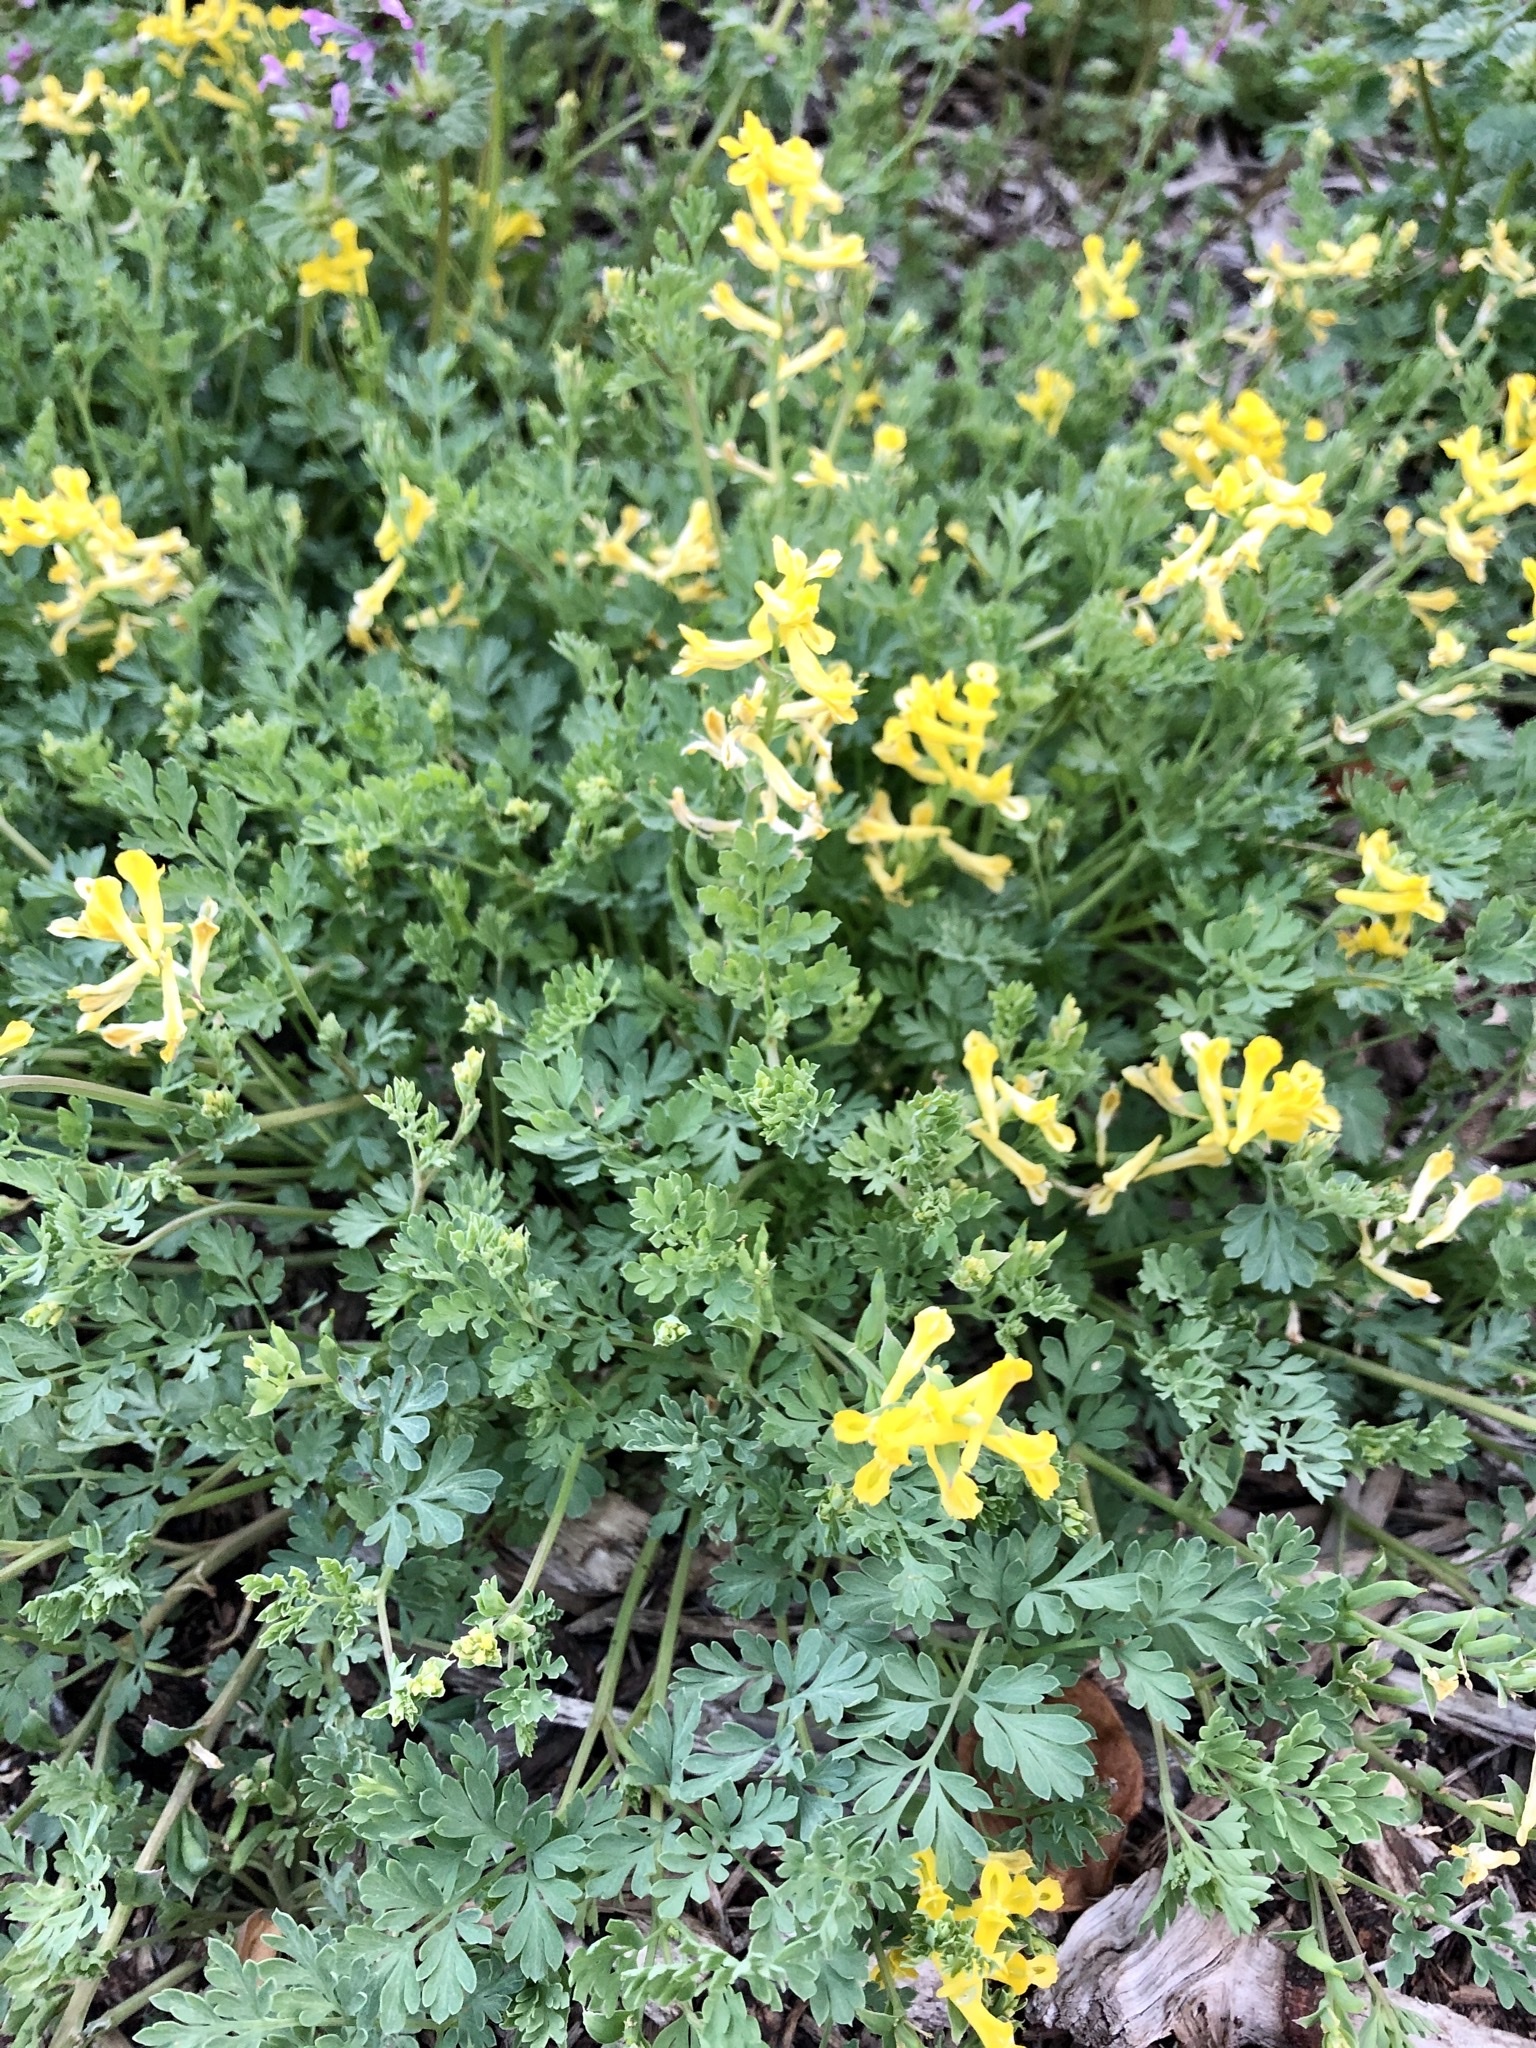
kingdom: Plantae
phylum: Tracheophyta
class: Magnoliopsida
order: Ranunculales
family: Papaveraceae
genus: Corydalis
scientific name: Corydalis aurea
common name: Golden corydalis
